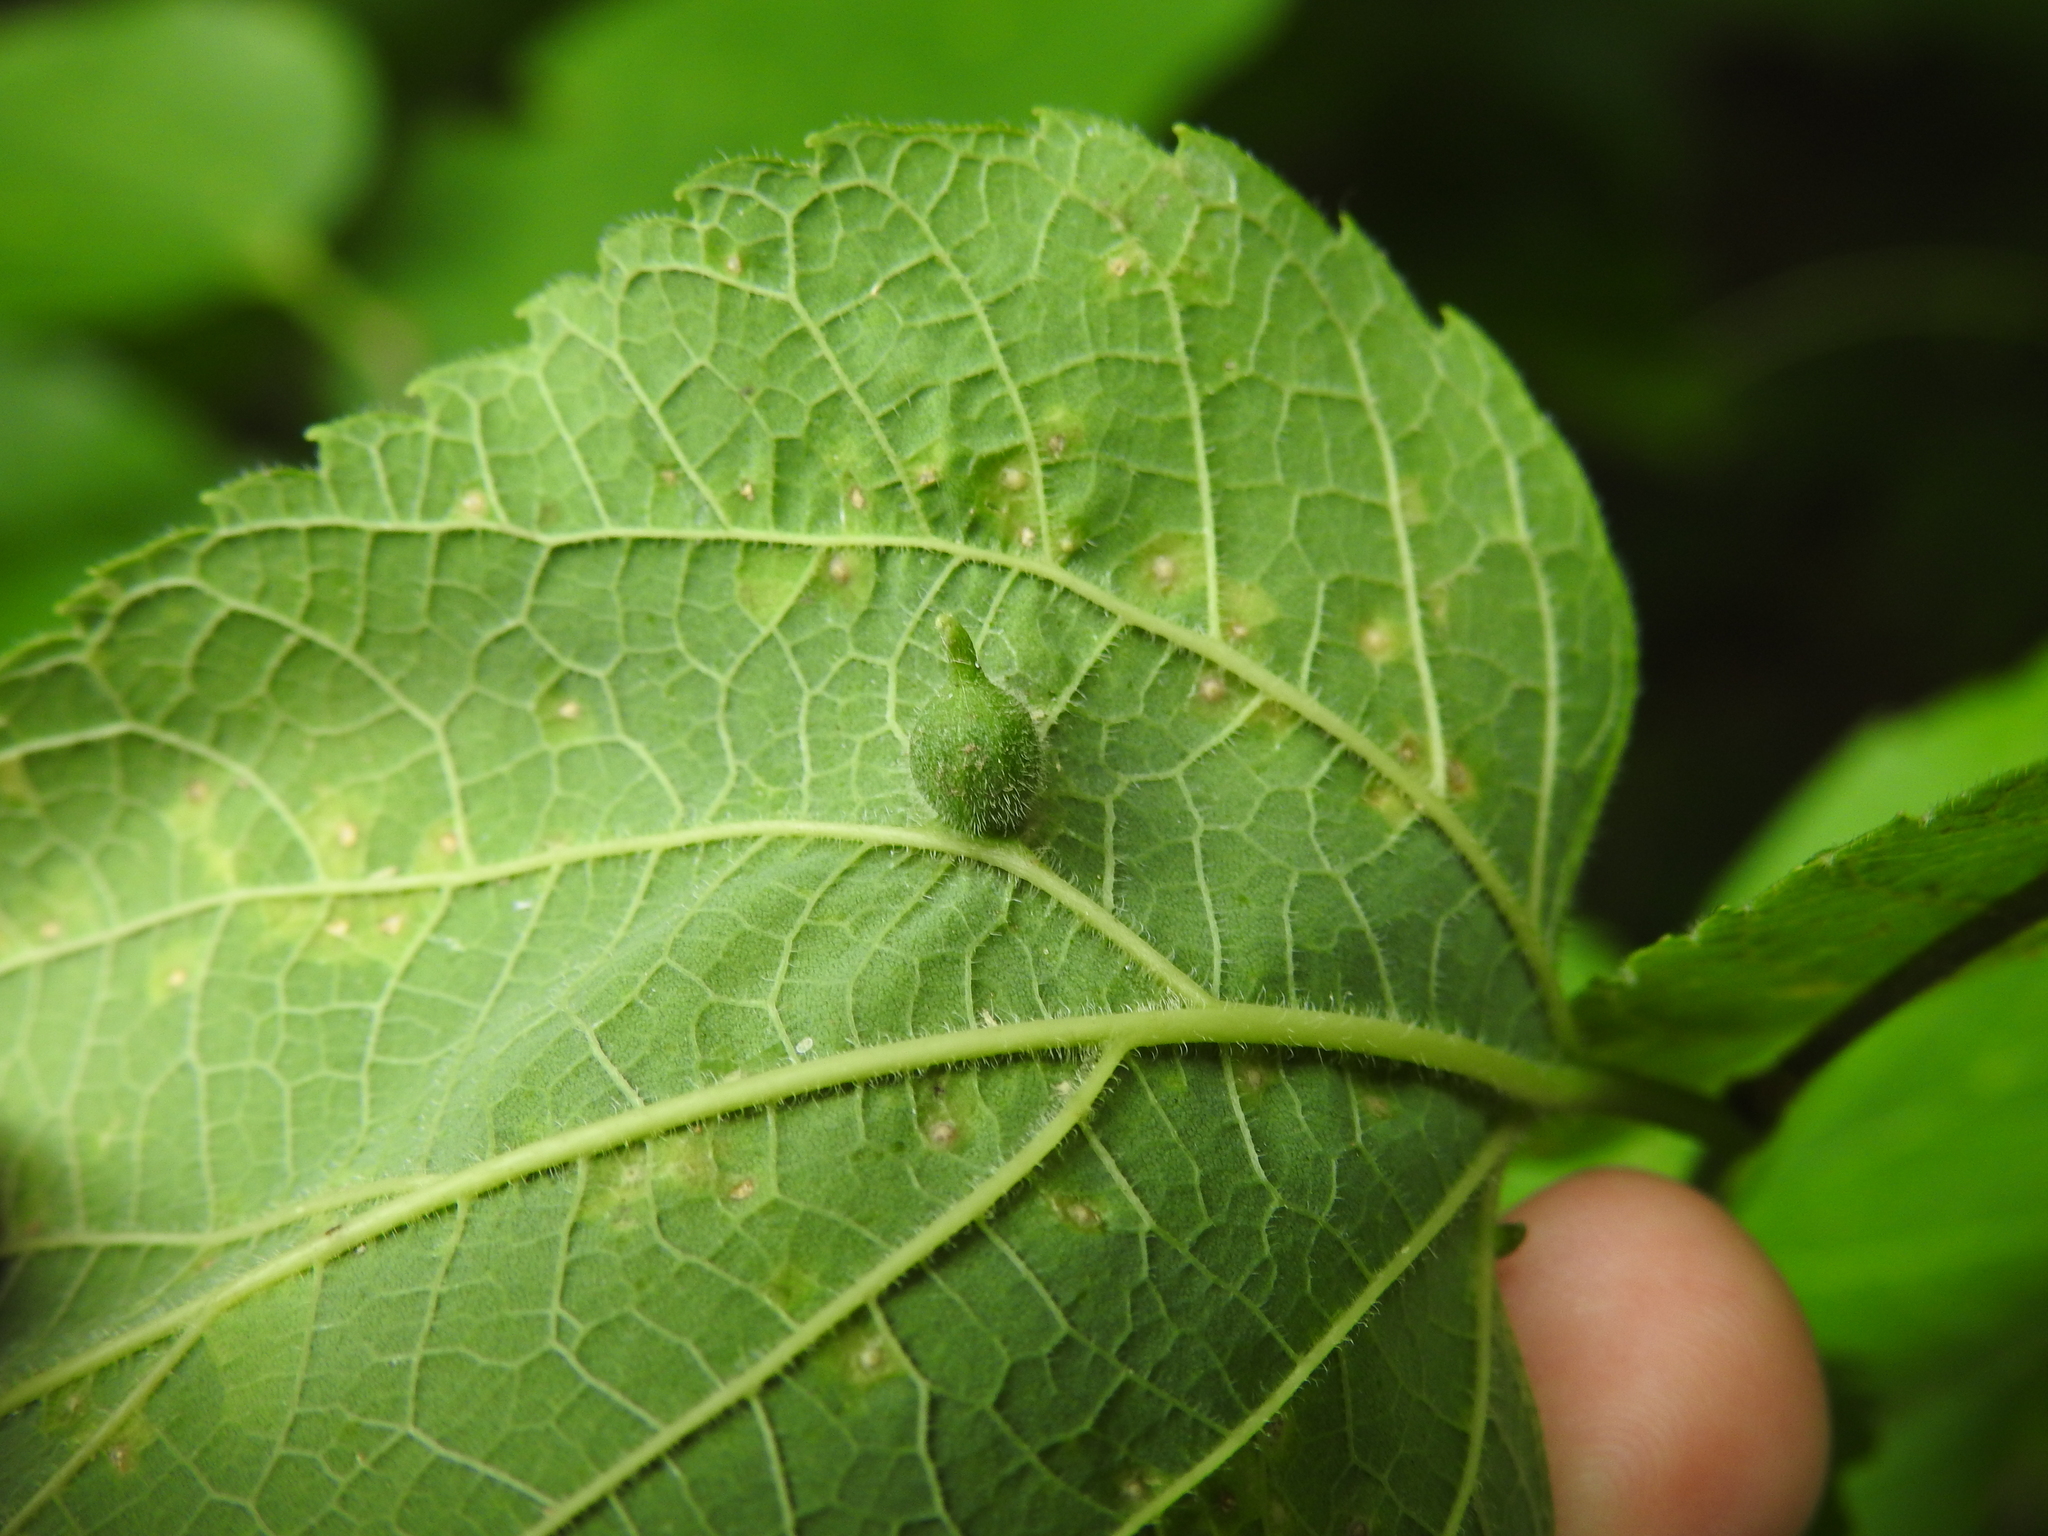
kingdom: Animalia
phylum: Arthropoda
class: Insecta
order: Diptera
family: Cecidomyiidae
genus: Celticecis
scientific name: Celticecis ovata
